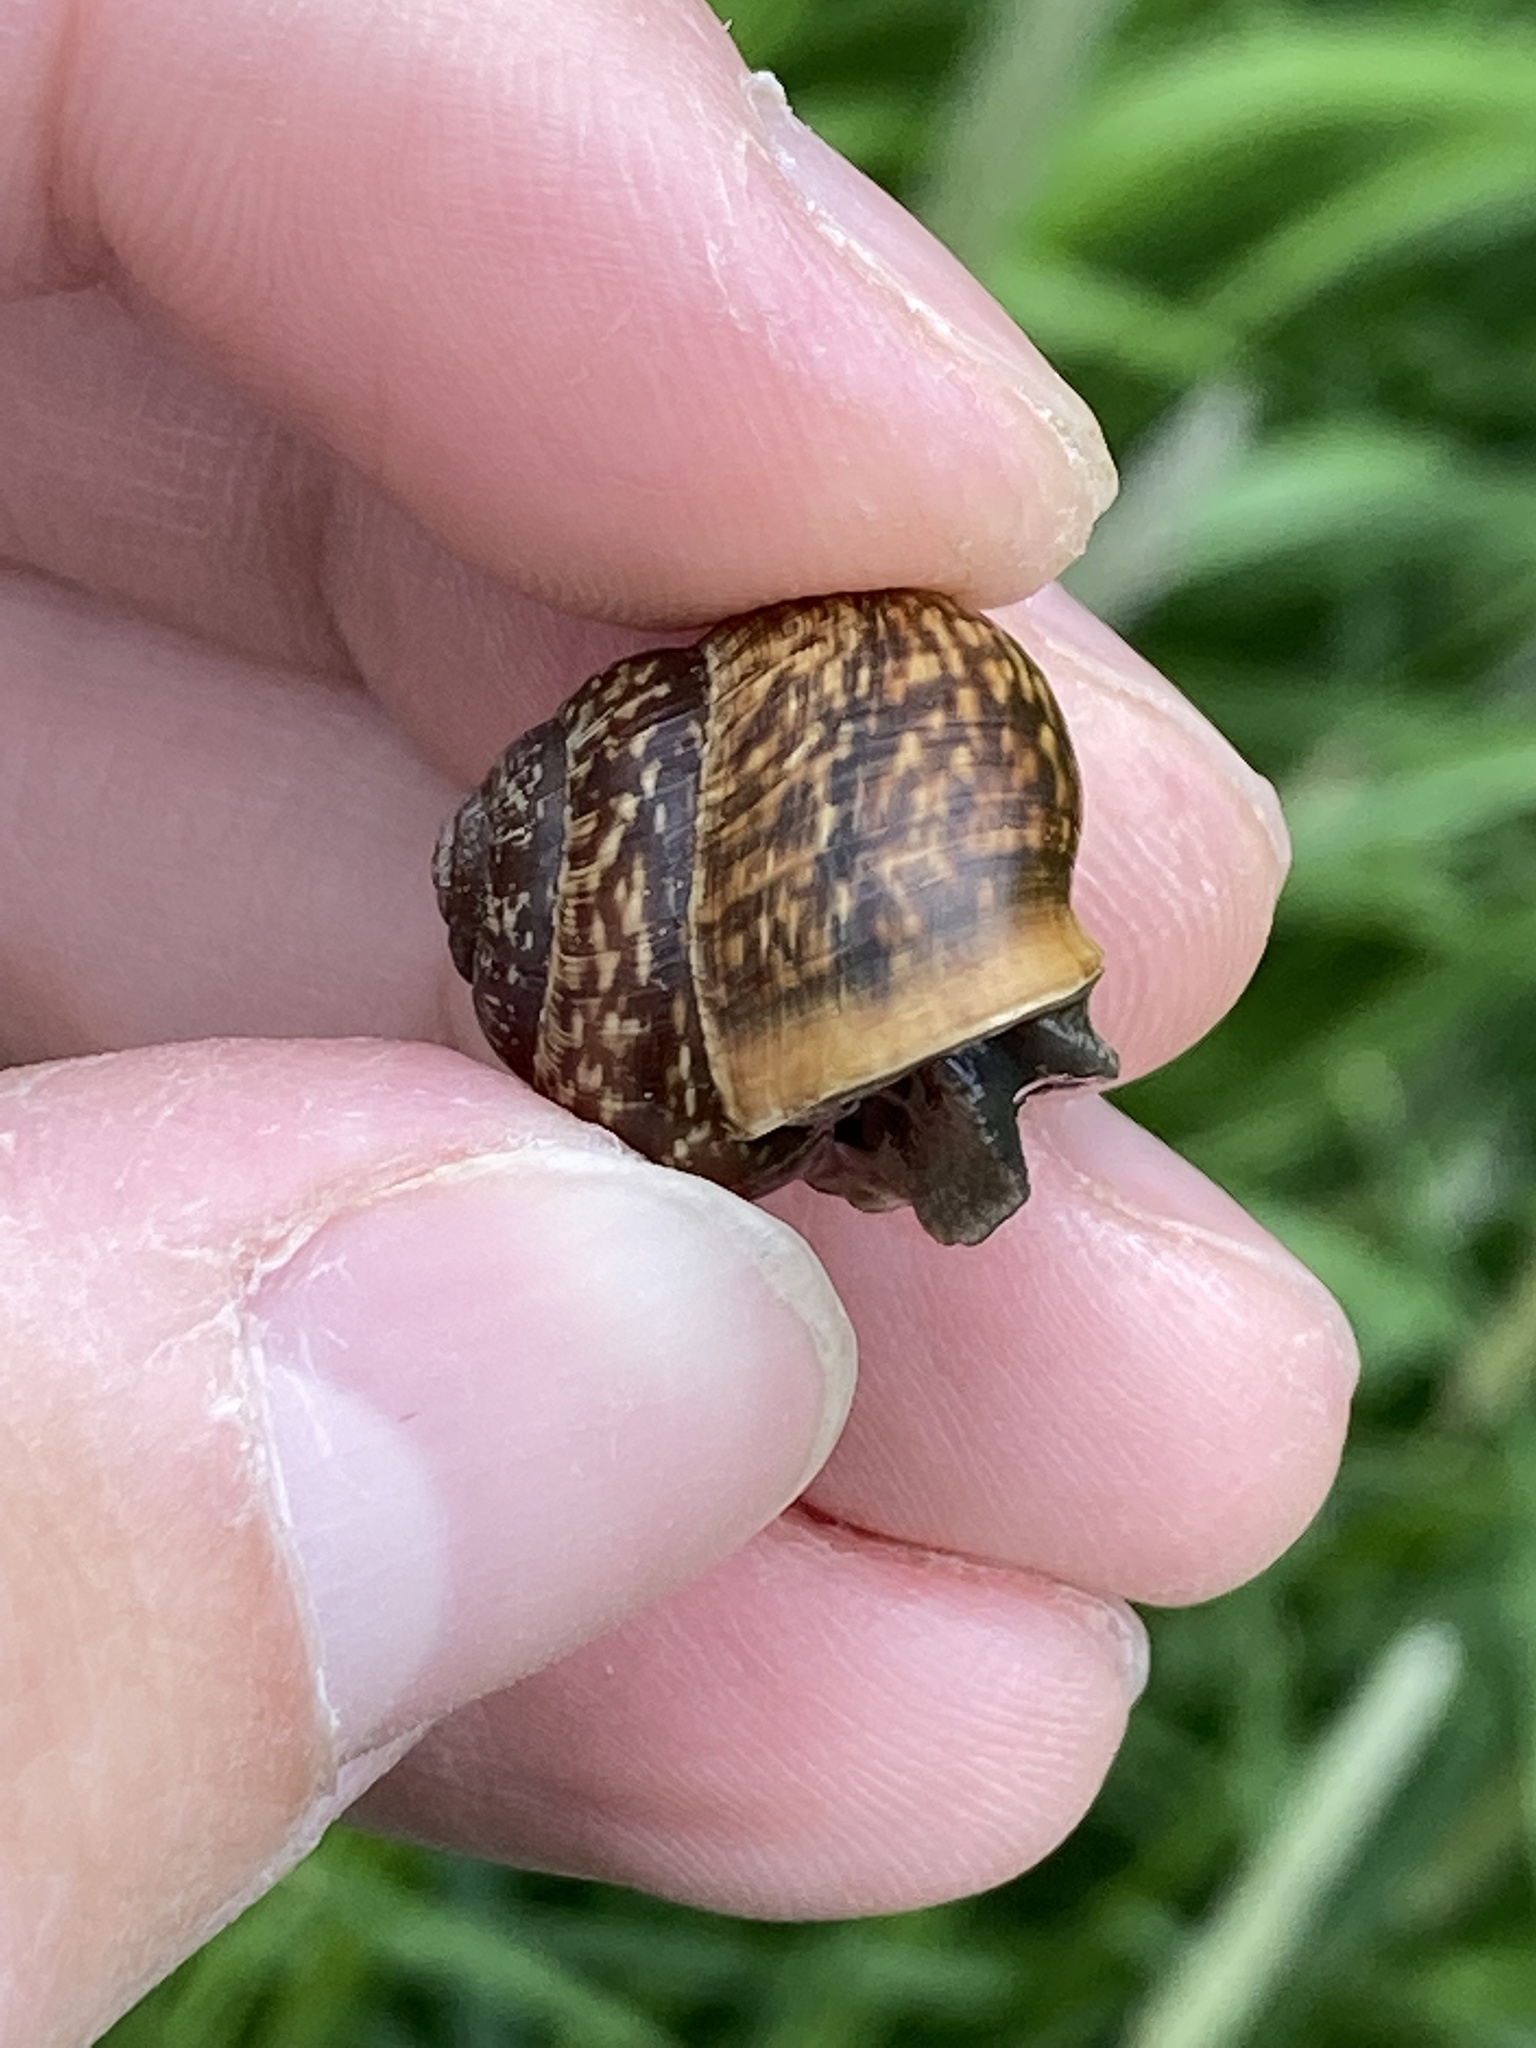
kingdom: Animalia
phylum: Mollusca
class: Gastropoda
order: Stylommatophora
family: Helicidae
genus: Arianta
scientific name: Arianta arbustorum
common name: Copse snail
